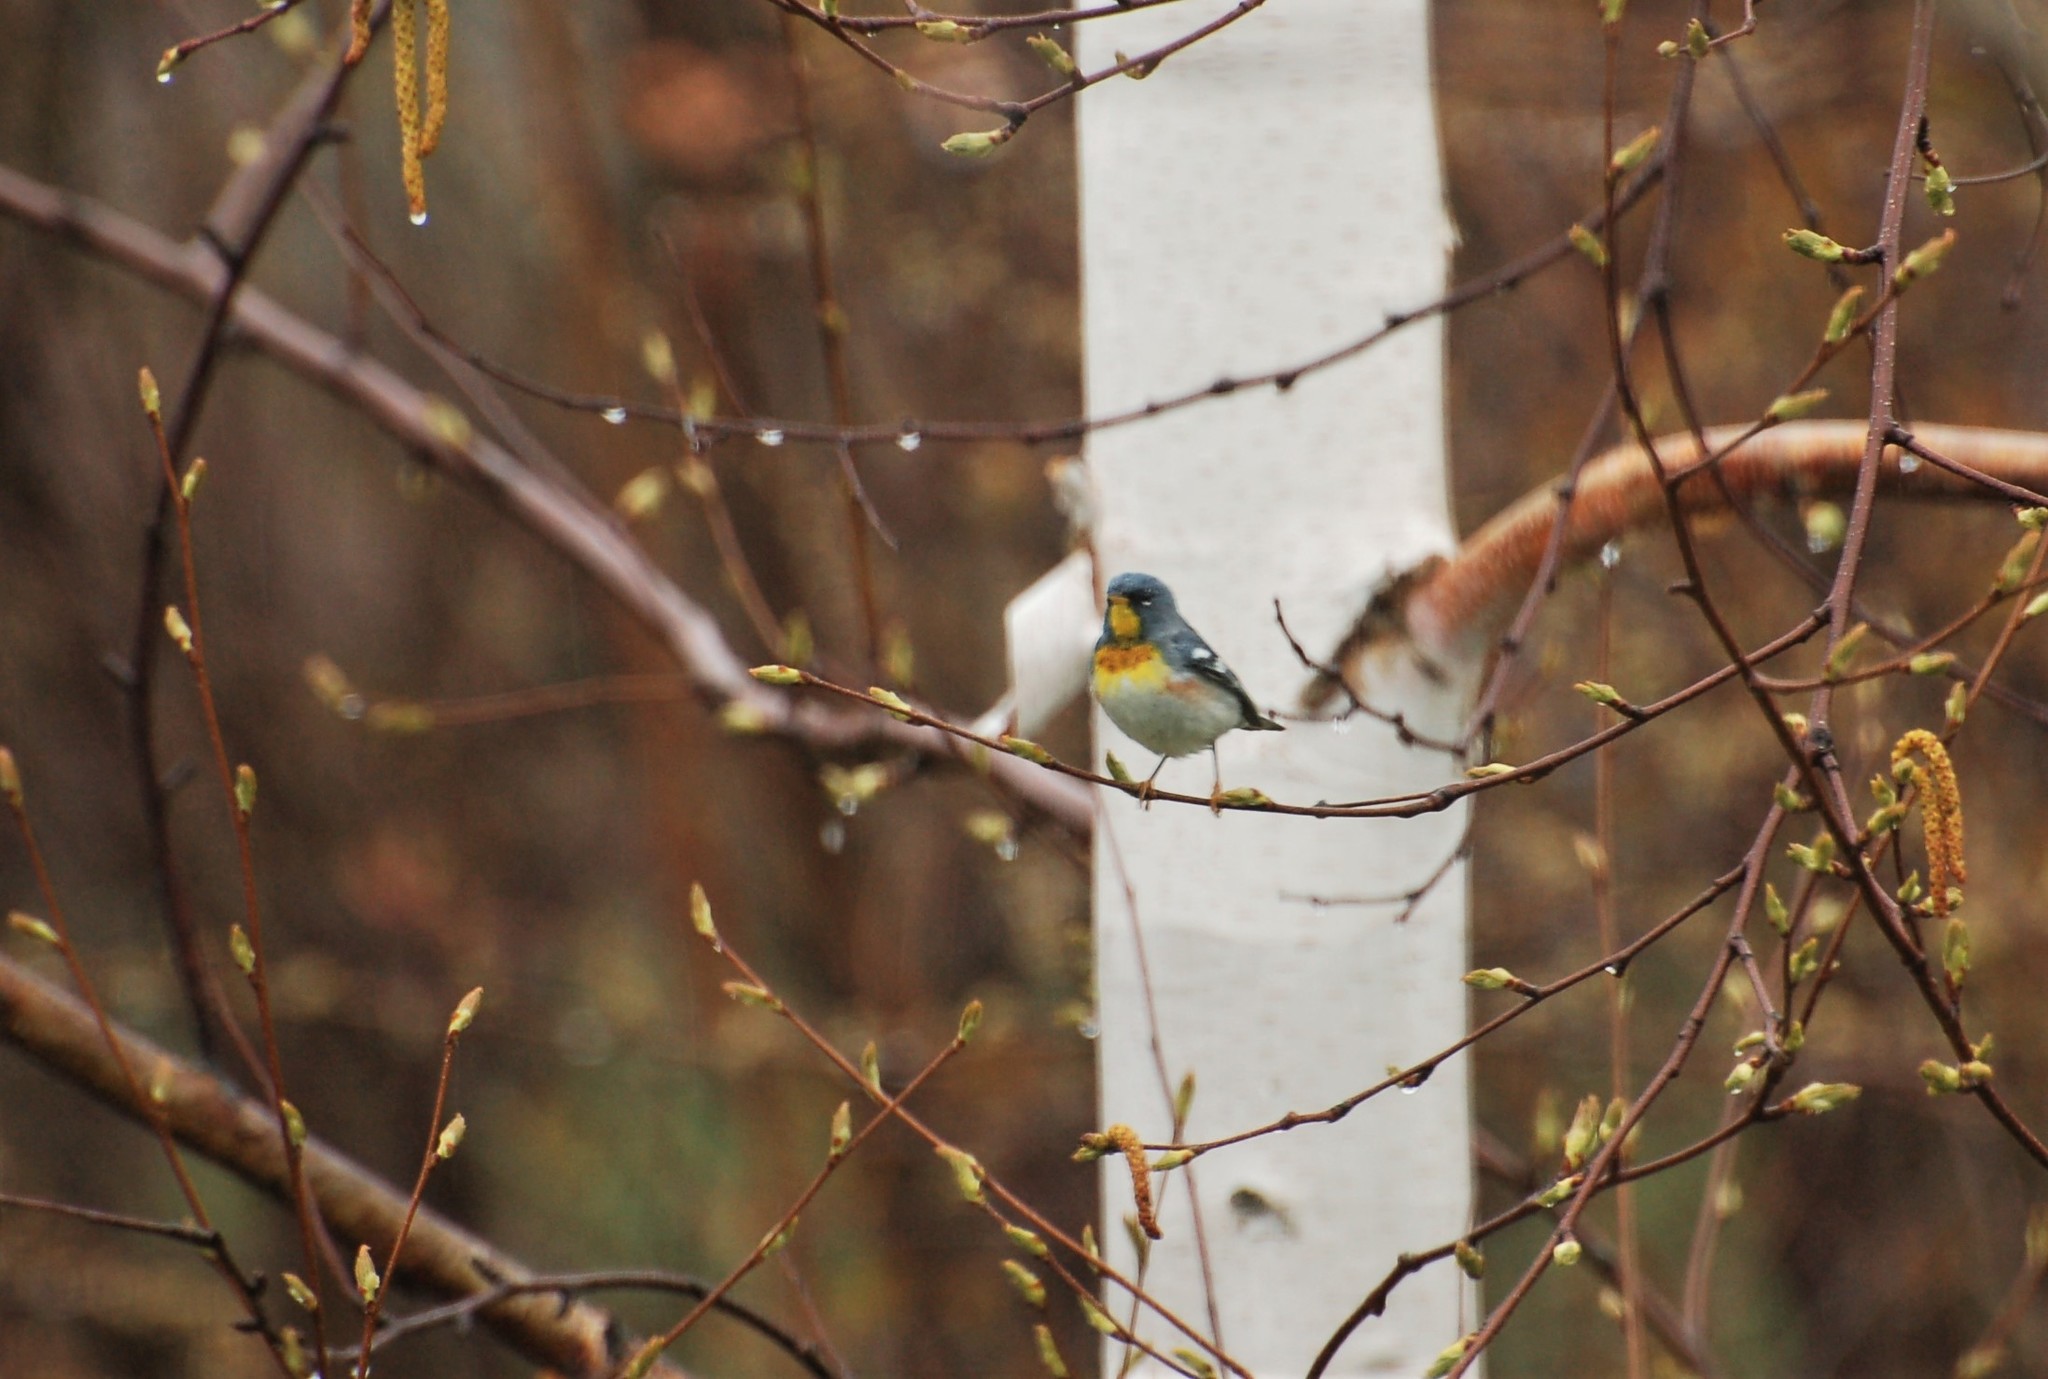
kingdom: Animalia
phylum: Chordata
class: Aves
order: Passeriformes
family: Parulidae
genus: Setophaga
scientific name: Setophaga americana
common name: Northern parula
